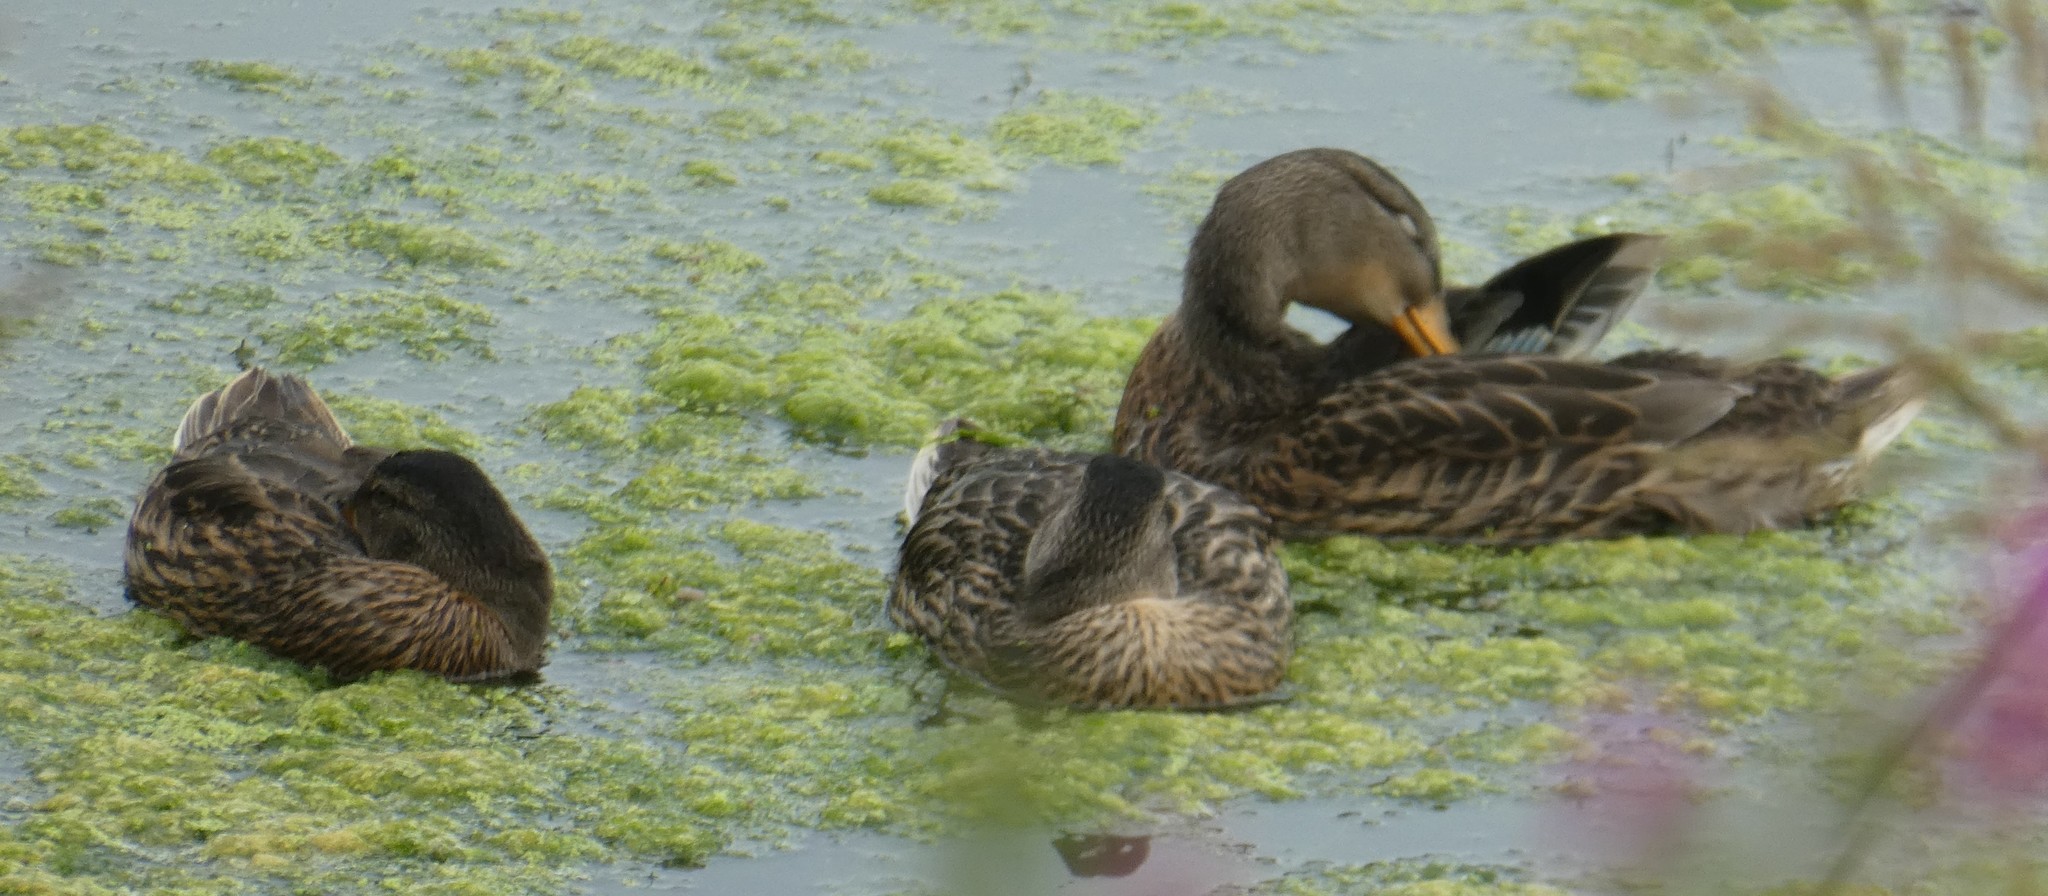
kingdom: Animalia
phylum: Chordata
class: Aves
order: Anseriformes
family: Anatidae
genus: Anas
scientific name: Anas platyrhynchos
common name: Mallard
